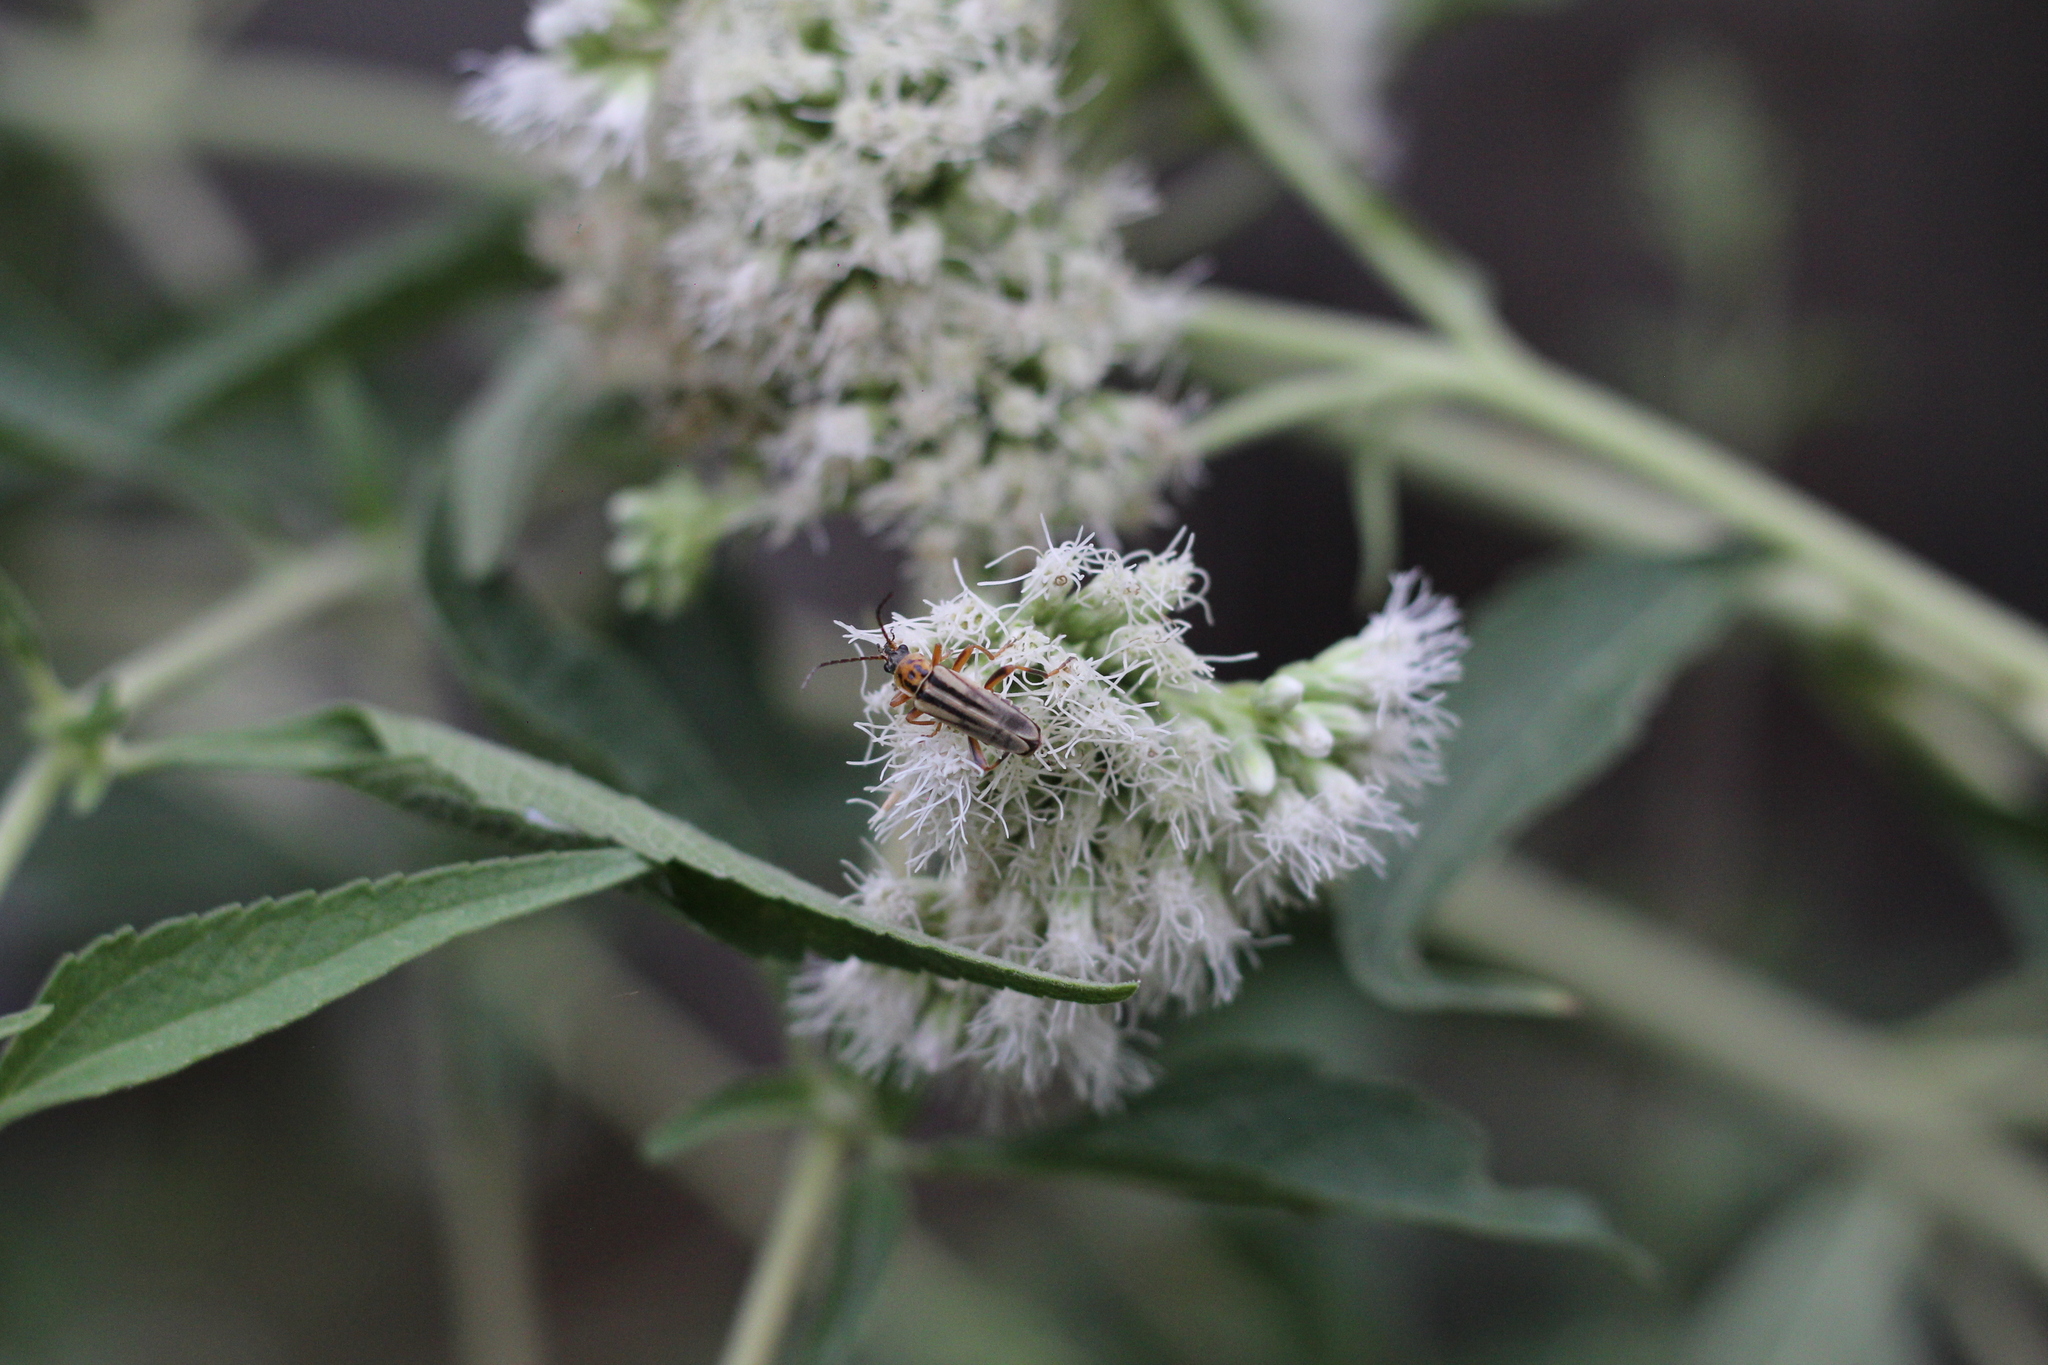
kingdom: Animalia
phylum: Arthropoda
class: Insecta
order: Coleoptera
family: Cantharidae
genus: Chauliognathus
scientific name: Chauliognathus
